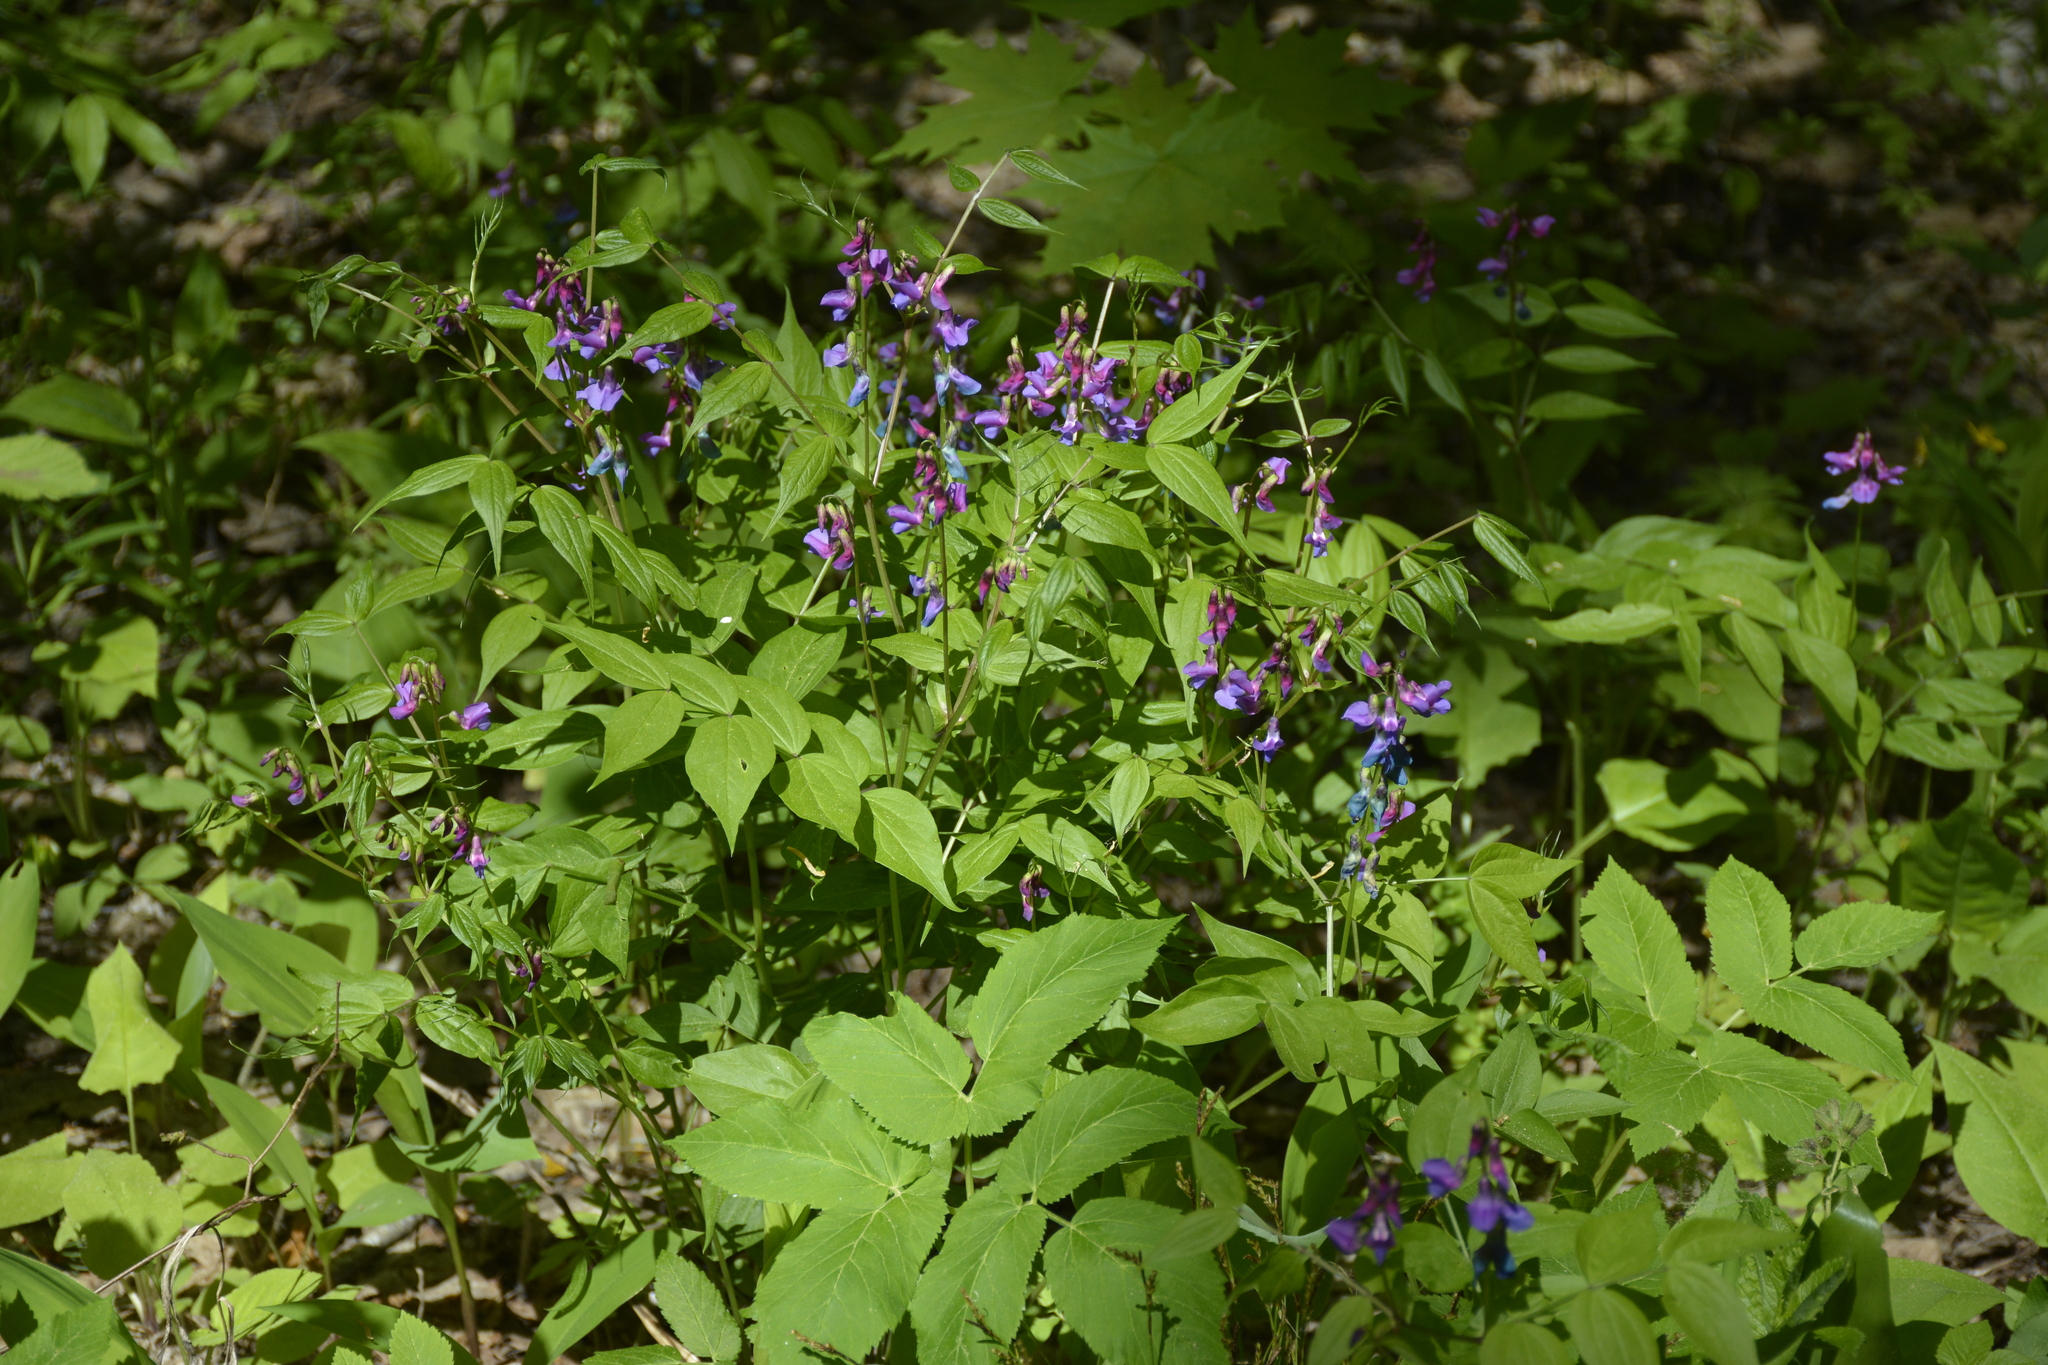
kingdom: Plantae
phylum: Tracheophyta
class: Magnoliopsida
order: Fabales
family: Fabaceae
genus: Lathyrus
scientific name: Lathyrus vernus
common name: Spring pea
